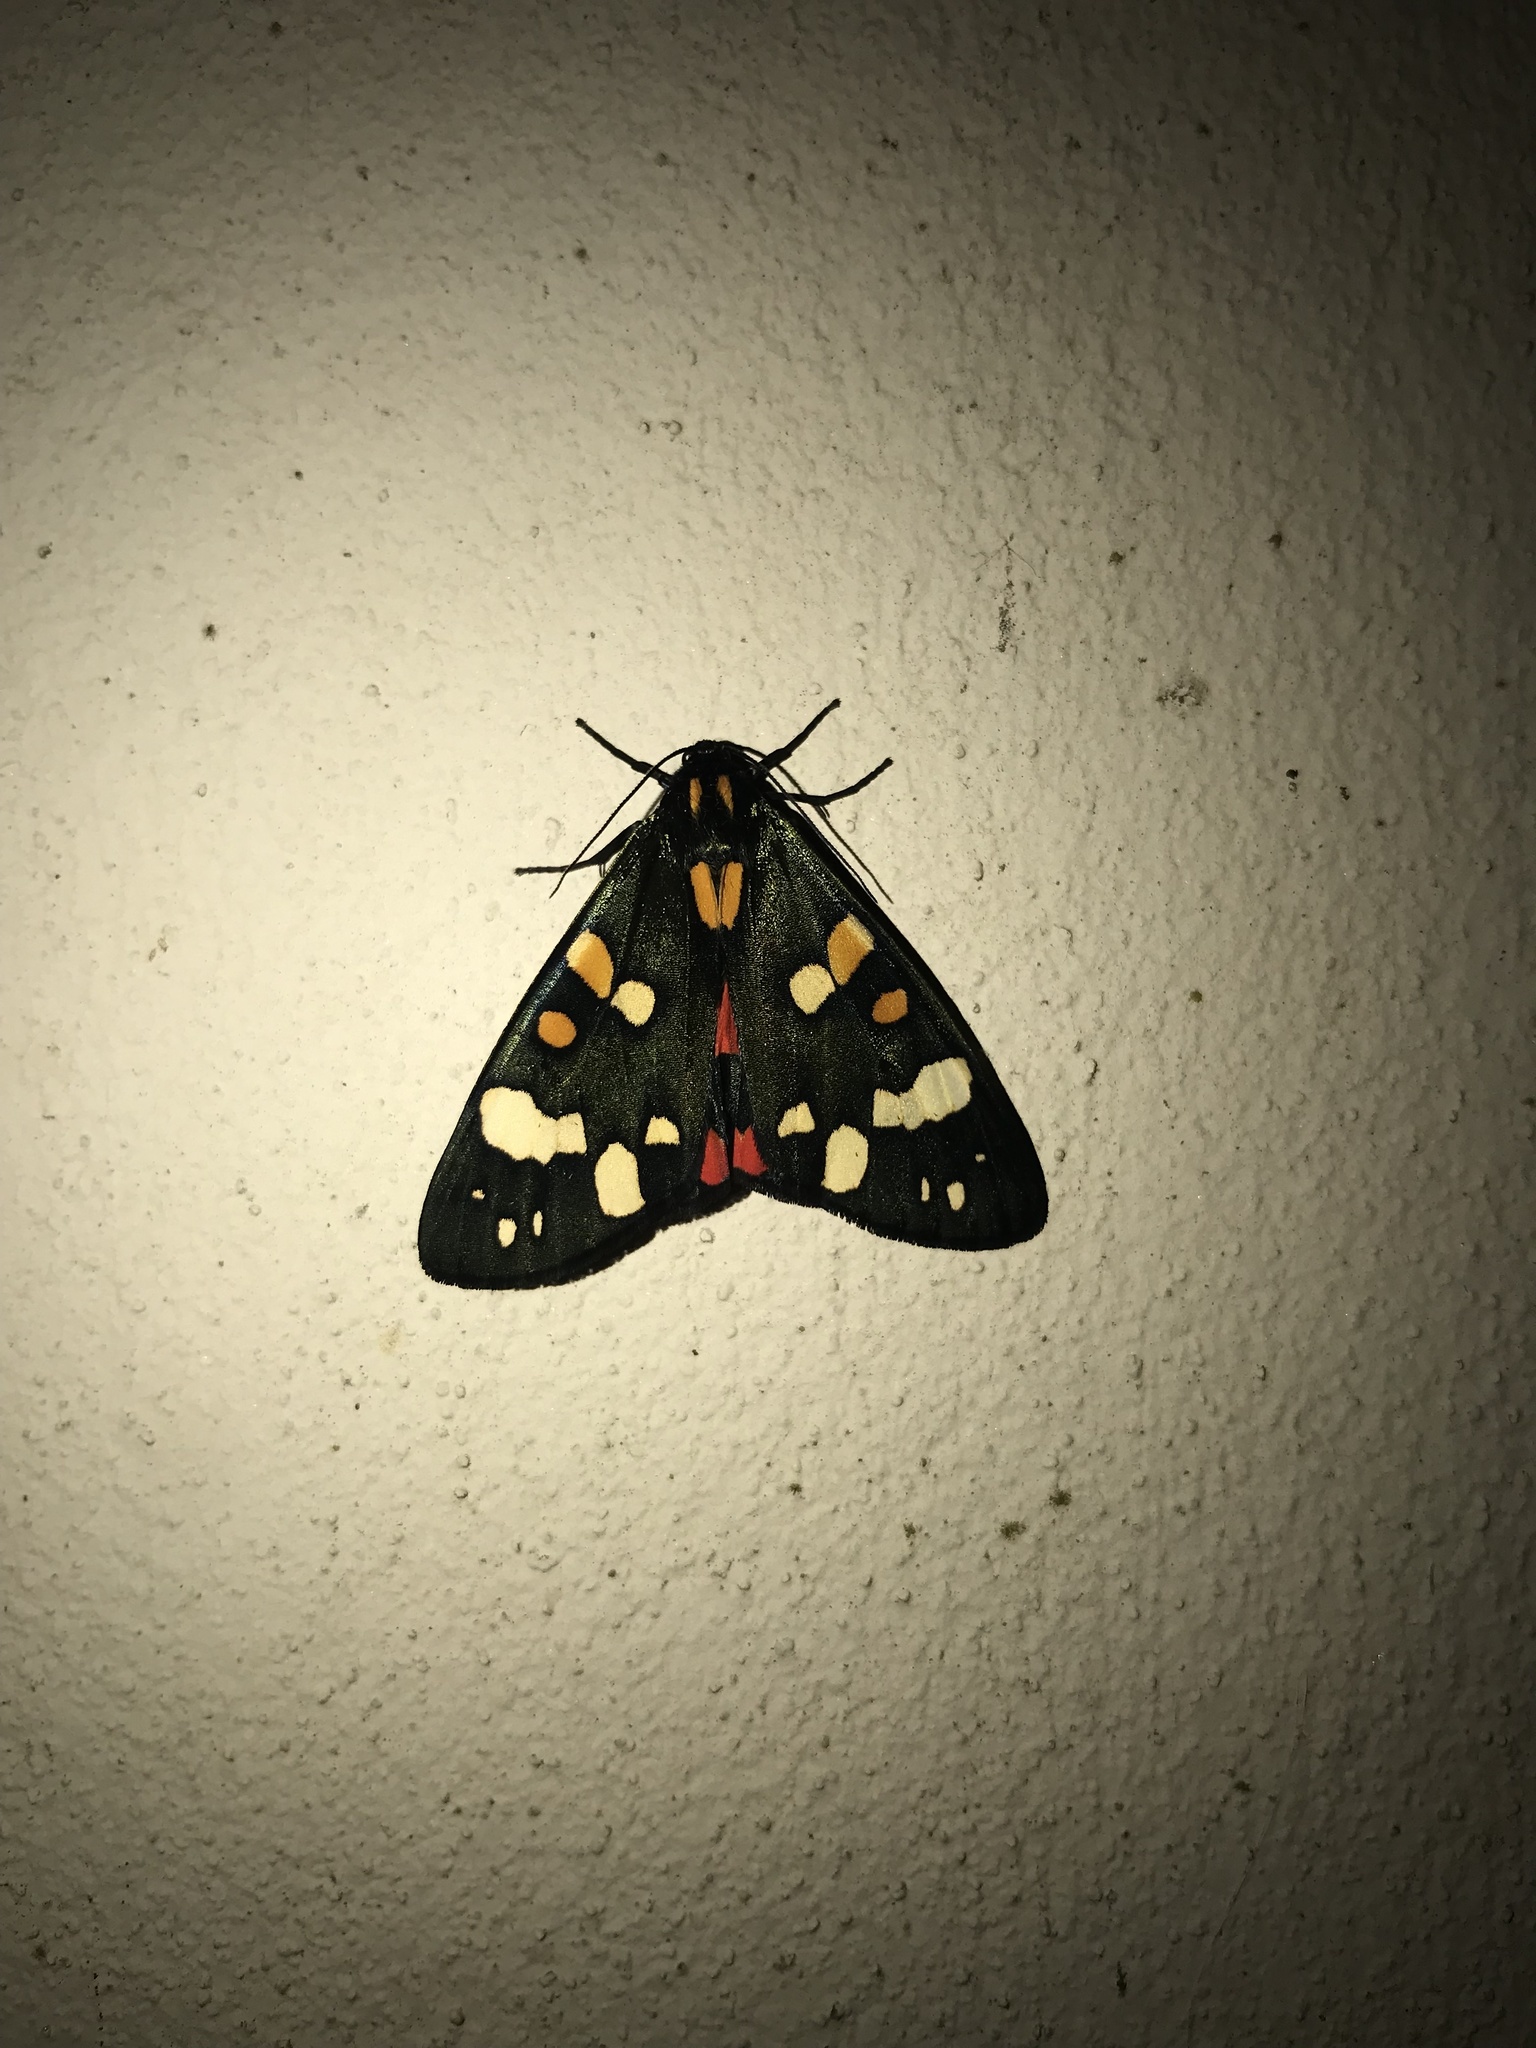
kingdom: Animalia
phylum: Arthropoda
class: Insecta
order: Lepidoptera
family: Erebidae
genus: Callimorpha
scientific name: Callimorpha dominula
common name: Scarlet tiger
